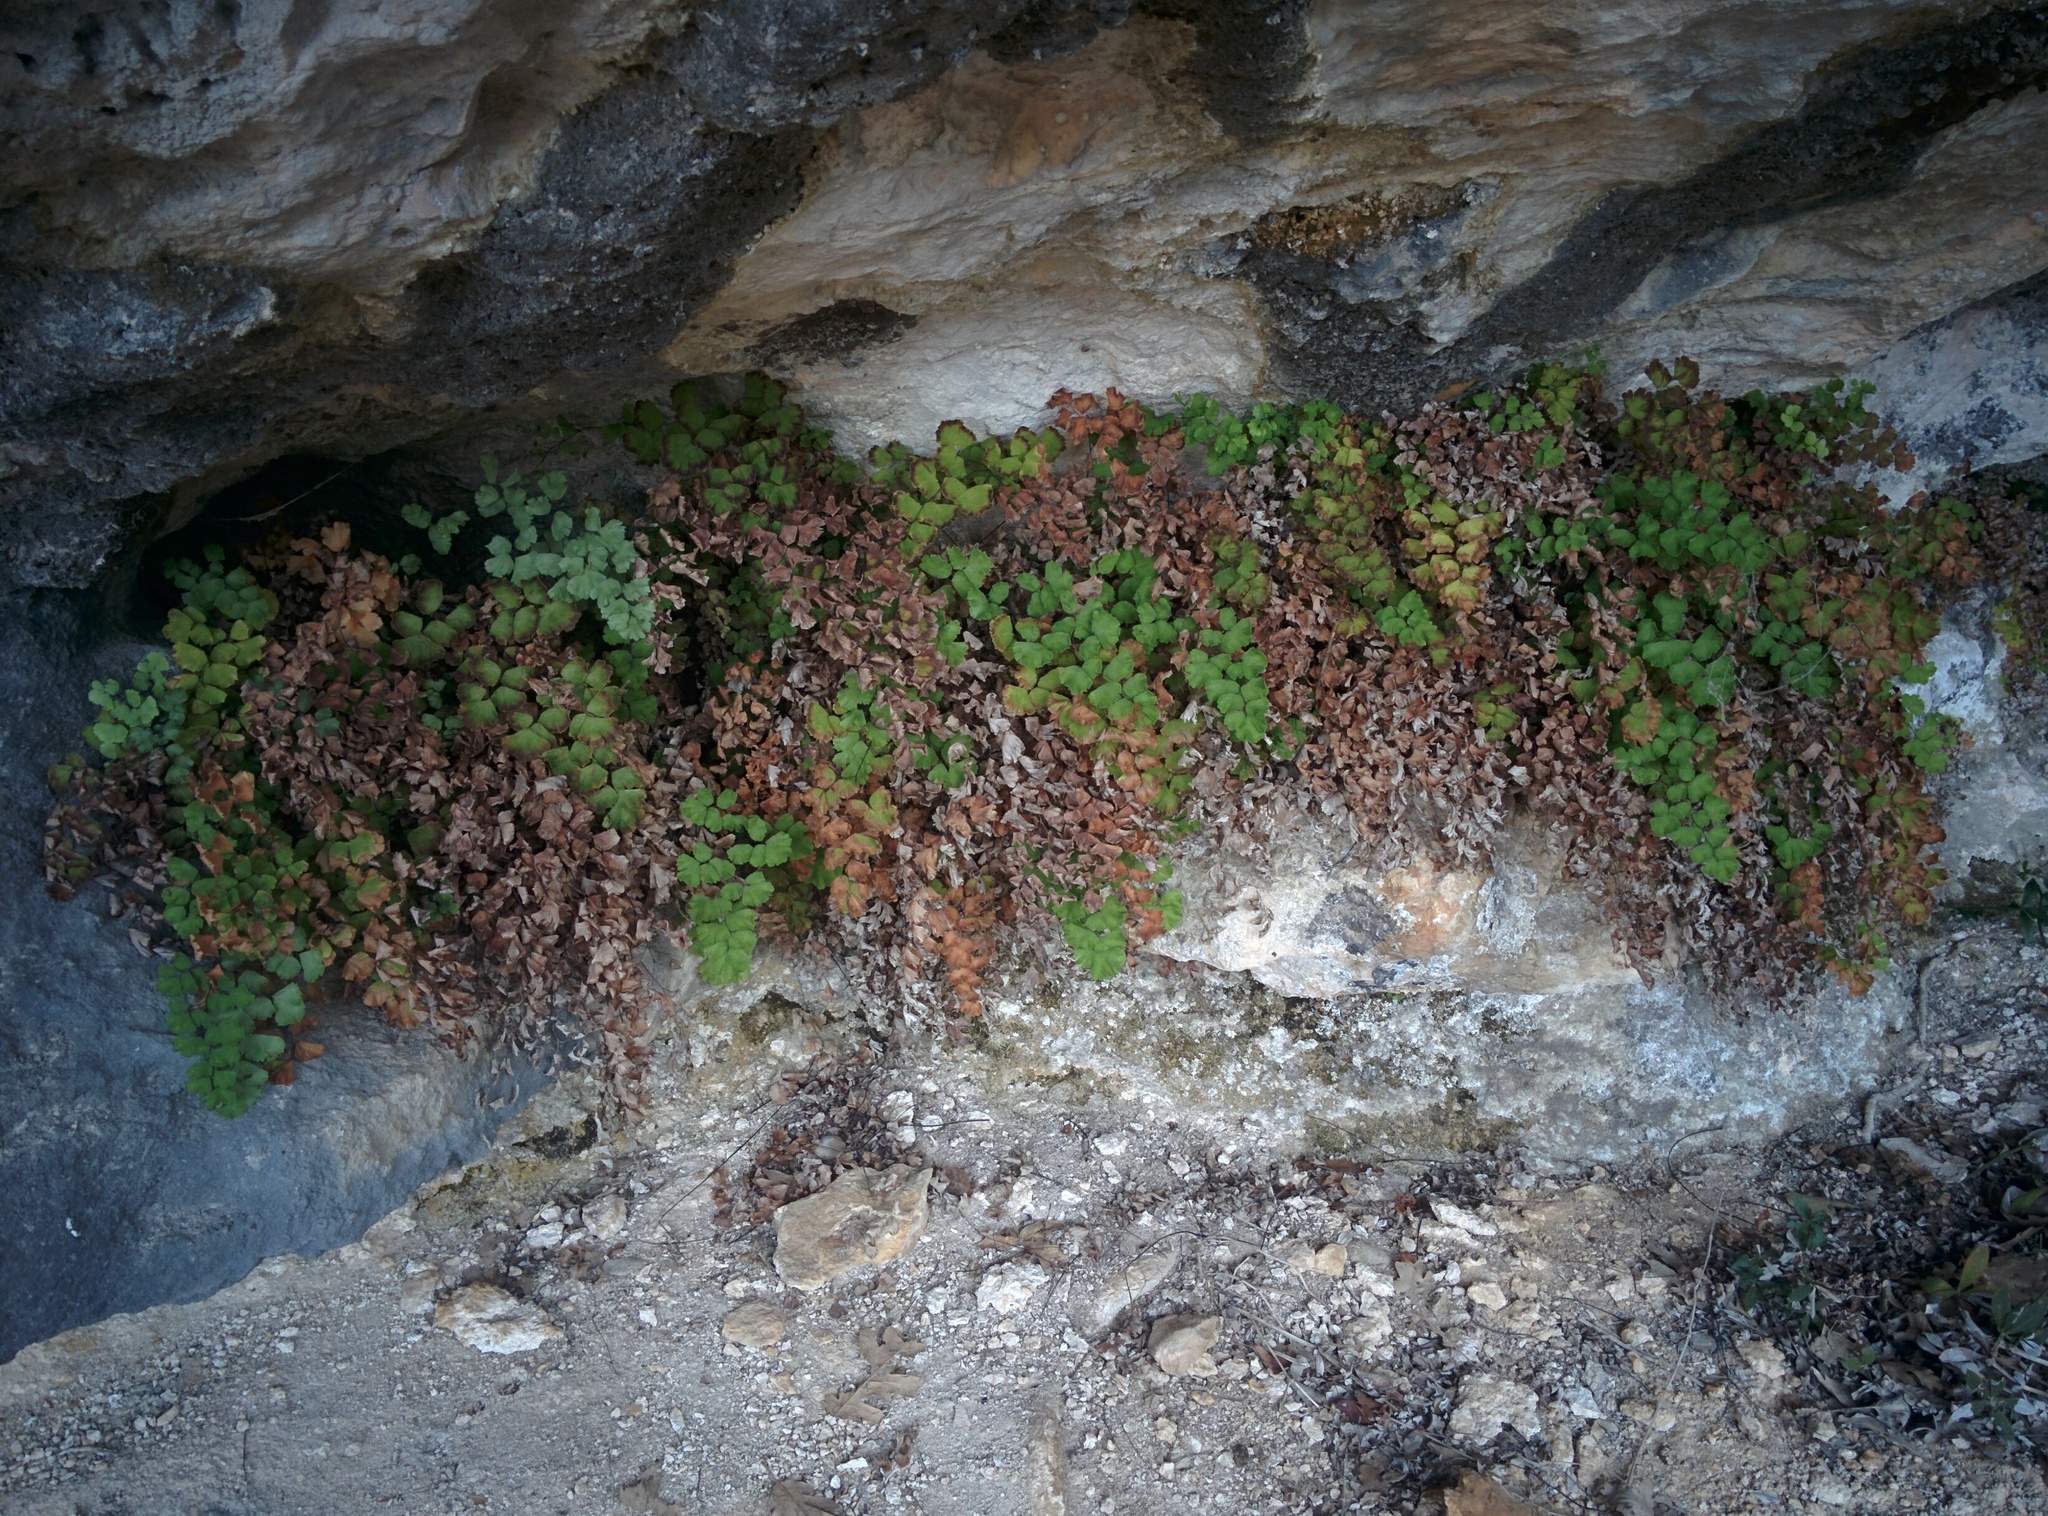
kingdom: Plantae
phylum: Tracheophyta
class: Polypodiopsida
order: Polypodiales
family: Pteridaceae
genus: Adiantum
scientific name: Adiantum capillus-veneris
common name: Maidenhair fern
